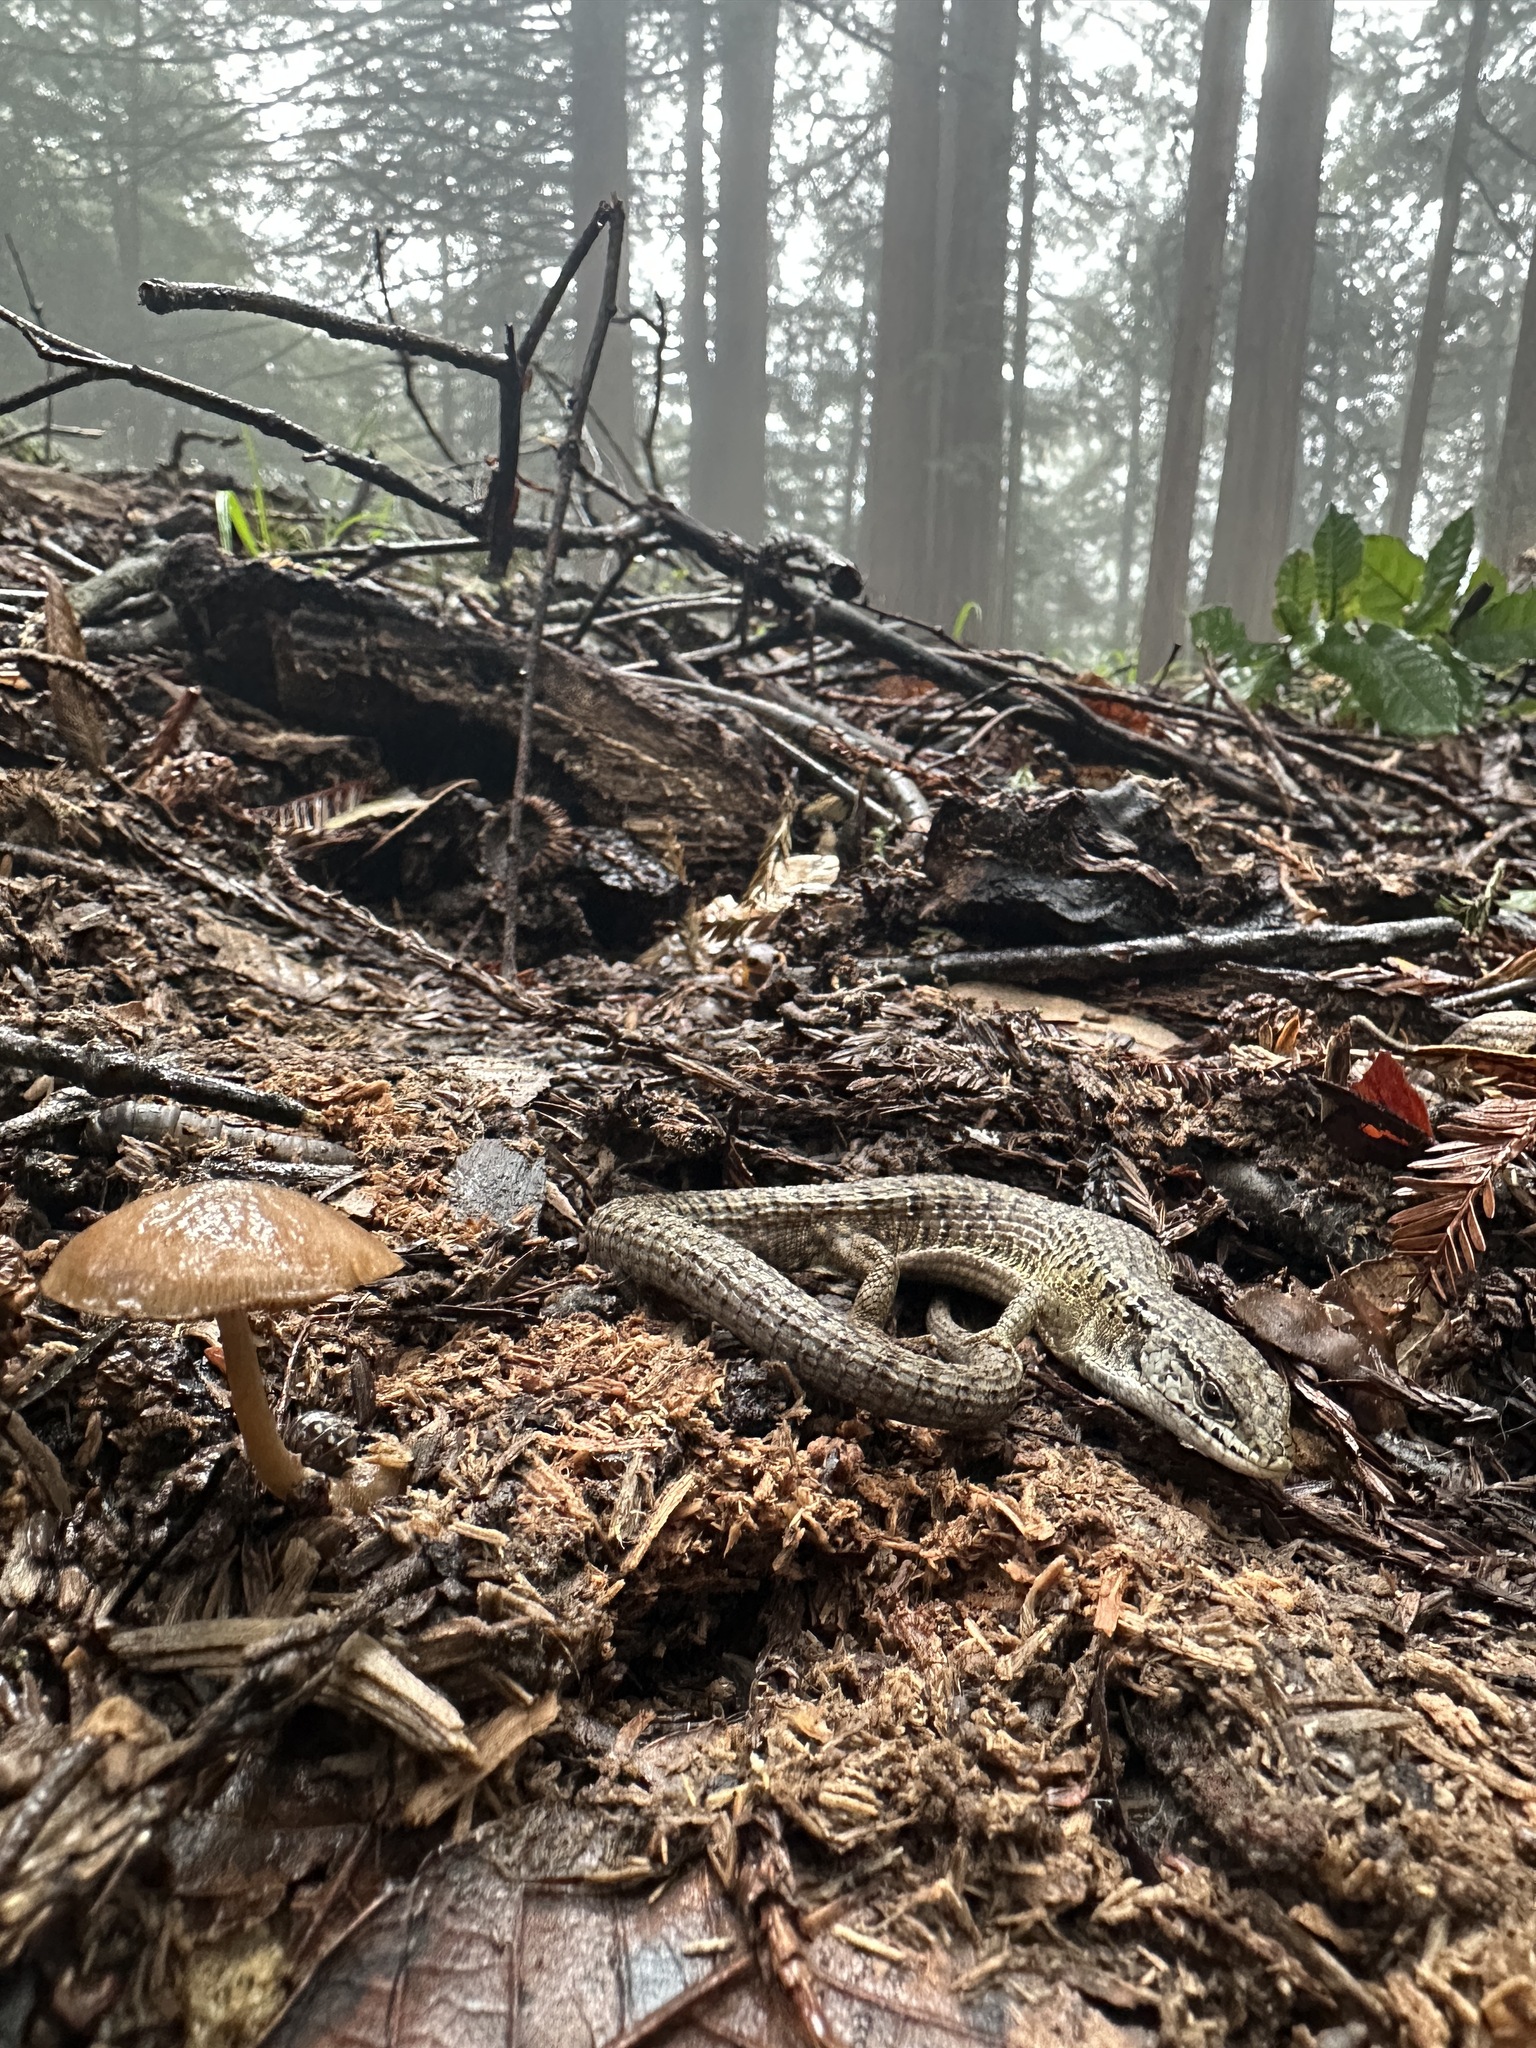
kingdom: Animalia
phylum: Chordata
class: Squamata
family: Anguidae
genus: Elgaria
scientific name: Elgaria coerulea
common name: Northern alligator lizard
